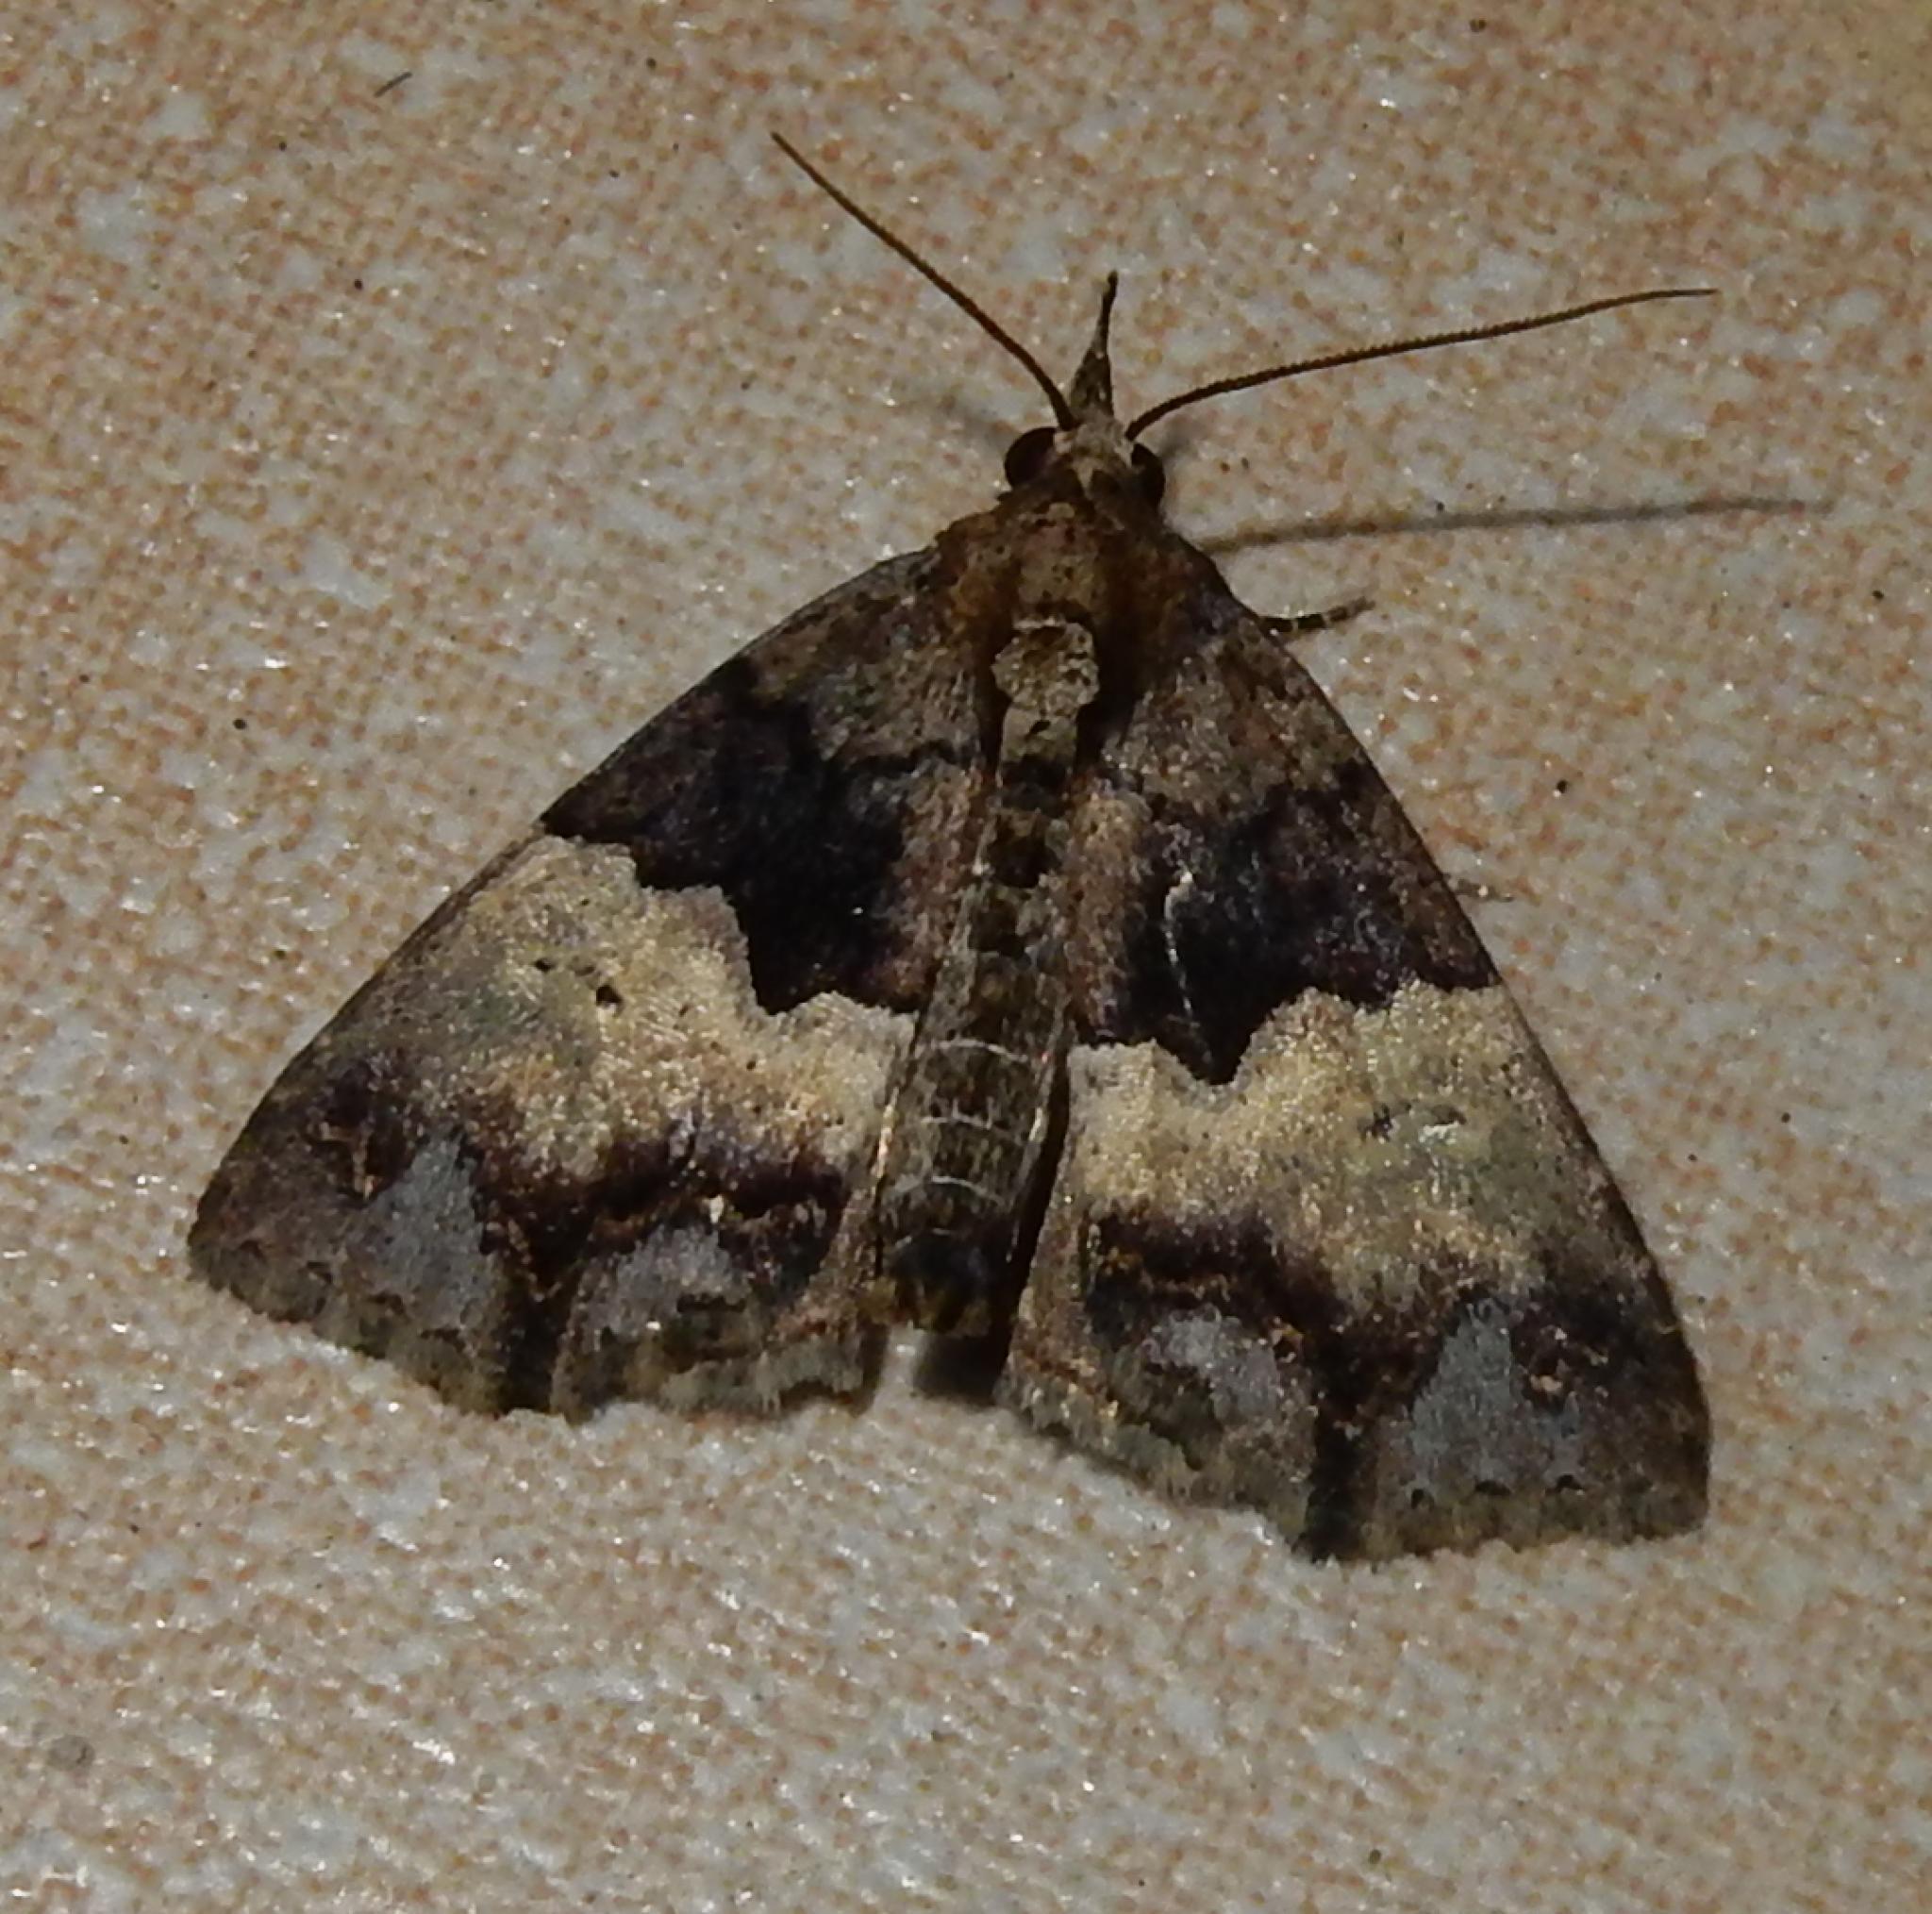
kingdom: Animalia
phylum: Arthropoda
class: Insecta
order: Lepidoptera
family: Erebidae
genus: Sarmatia
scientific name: Sarmatia interitalis
